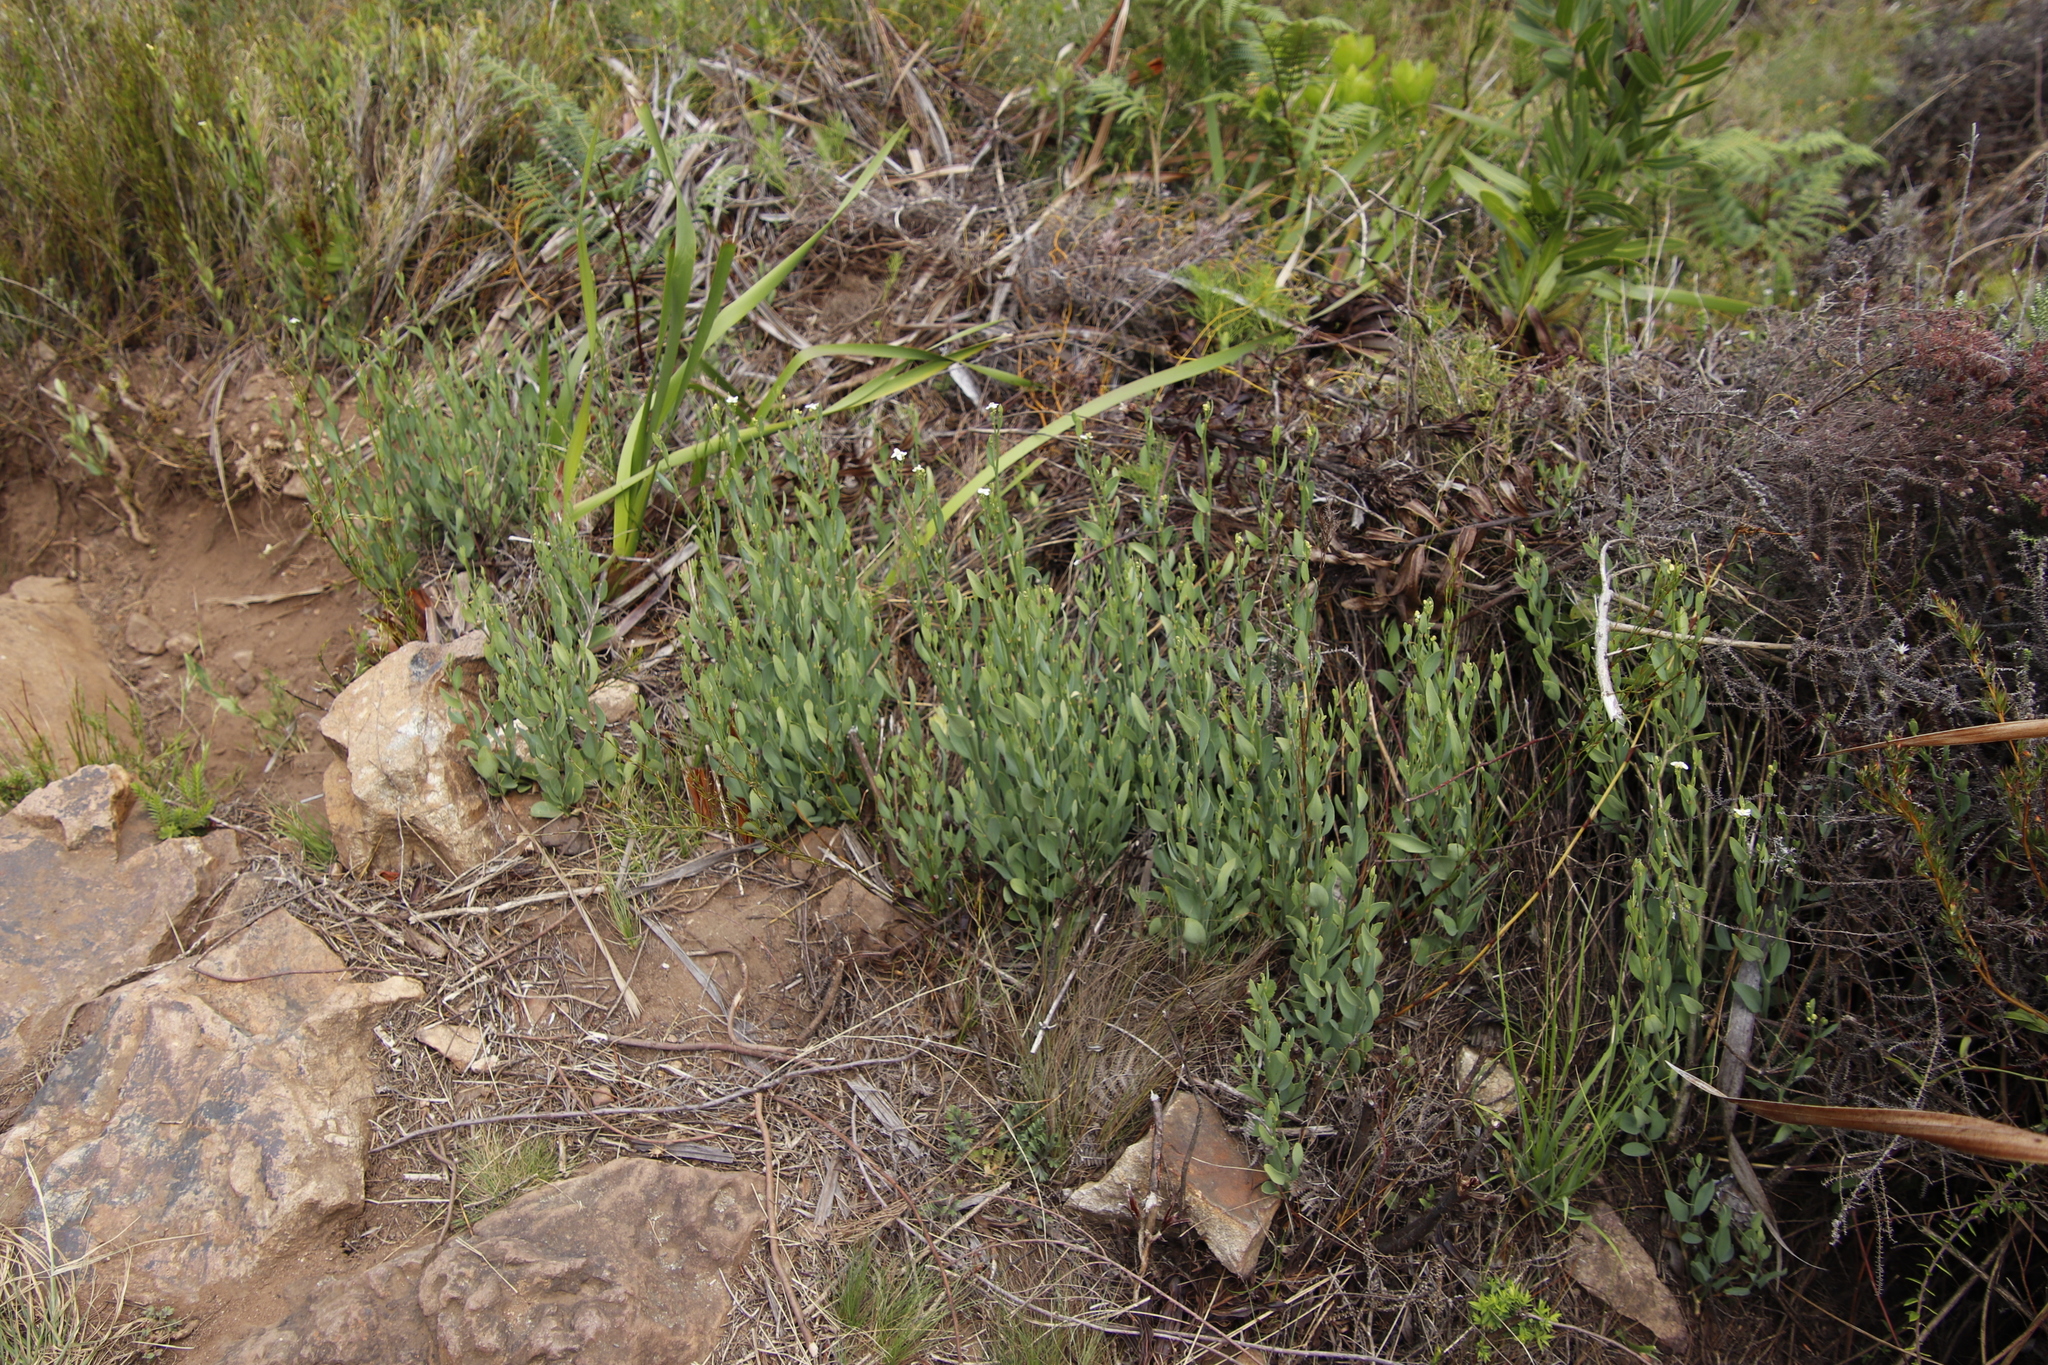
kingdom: Plantae
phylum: Tracheophyta
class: Magnoliopsida
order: Solanales
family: Montiniaceae
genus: Montinia
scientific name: Montinia caryophyllacea
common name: Wild clove-bush
